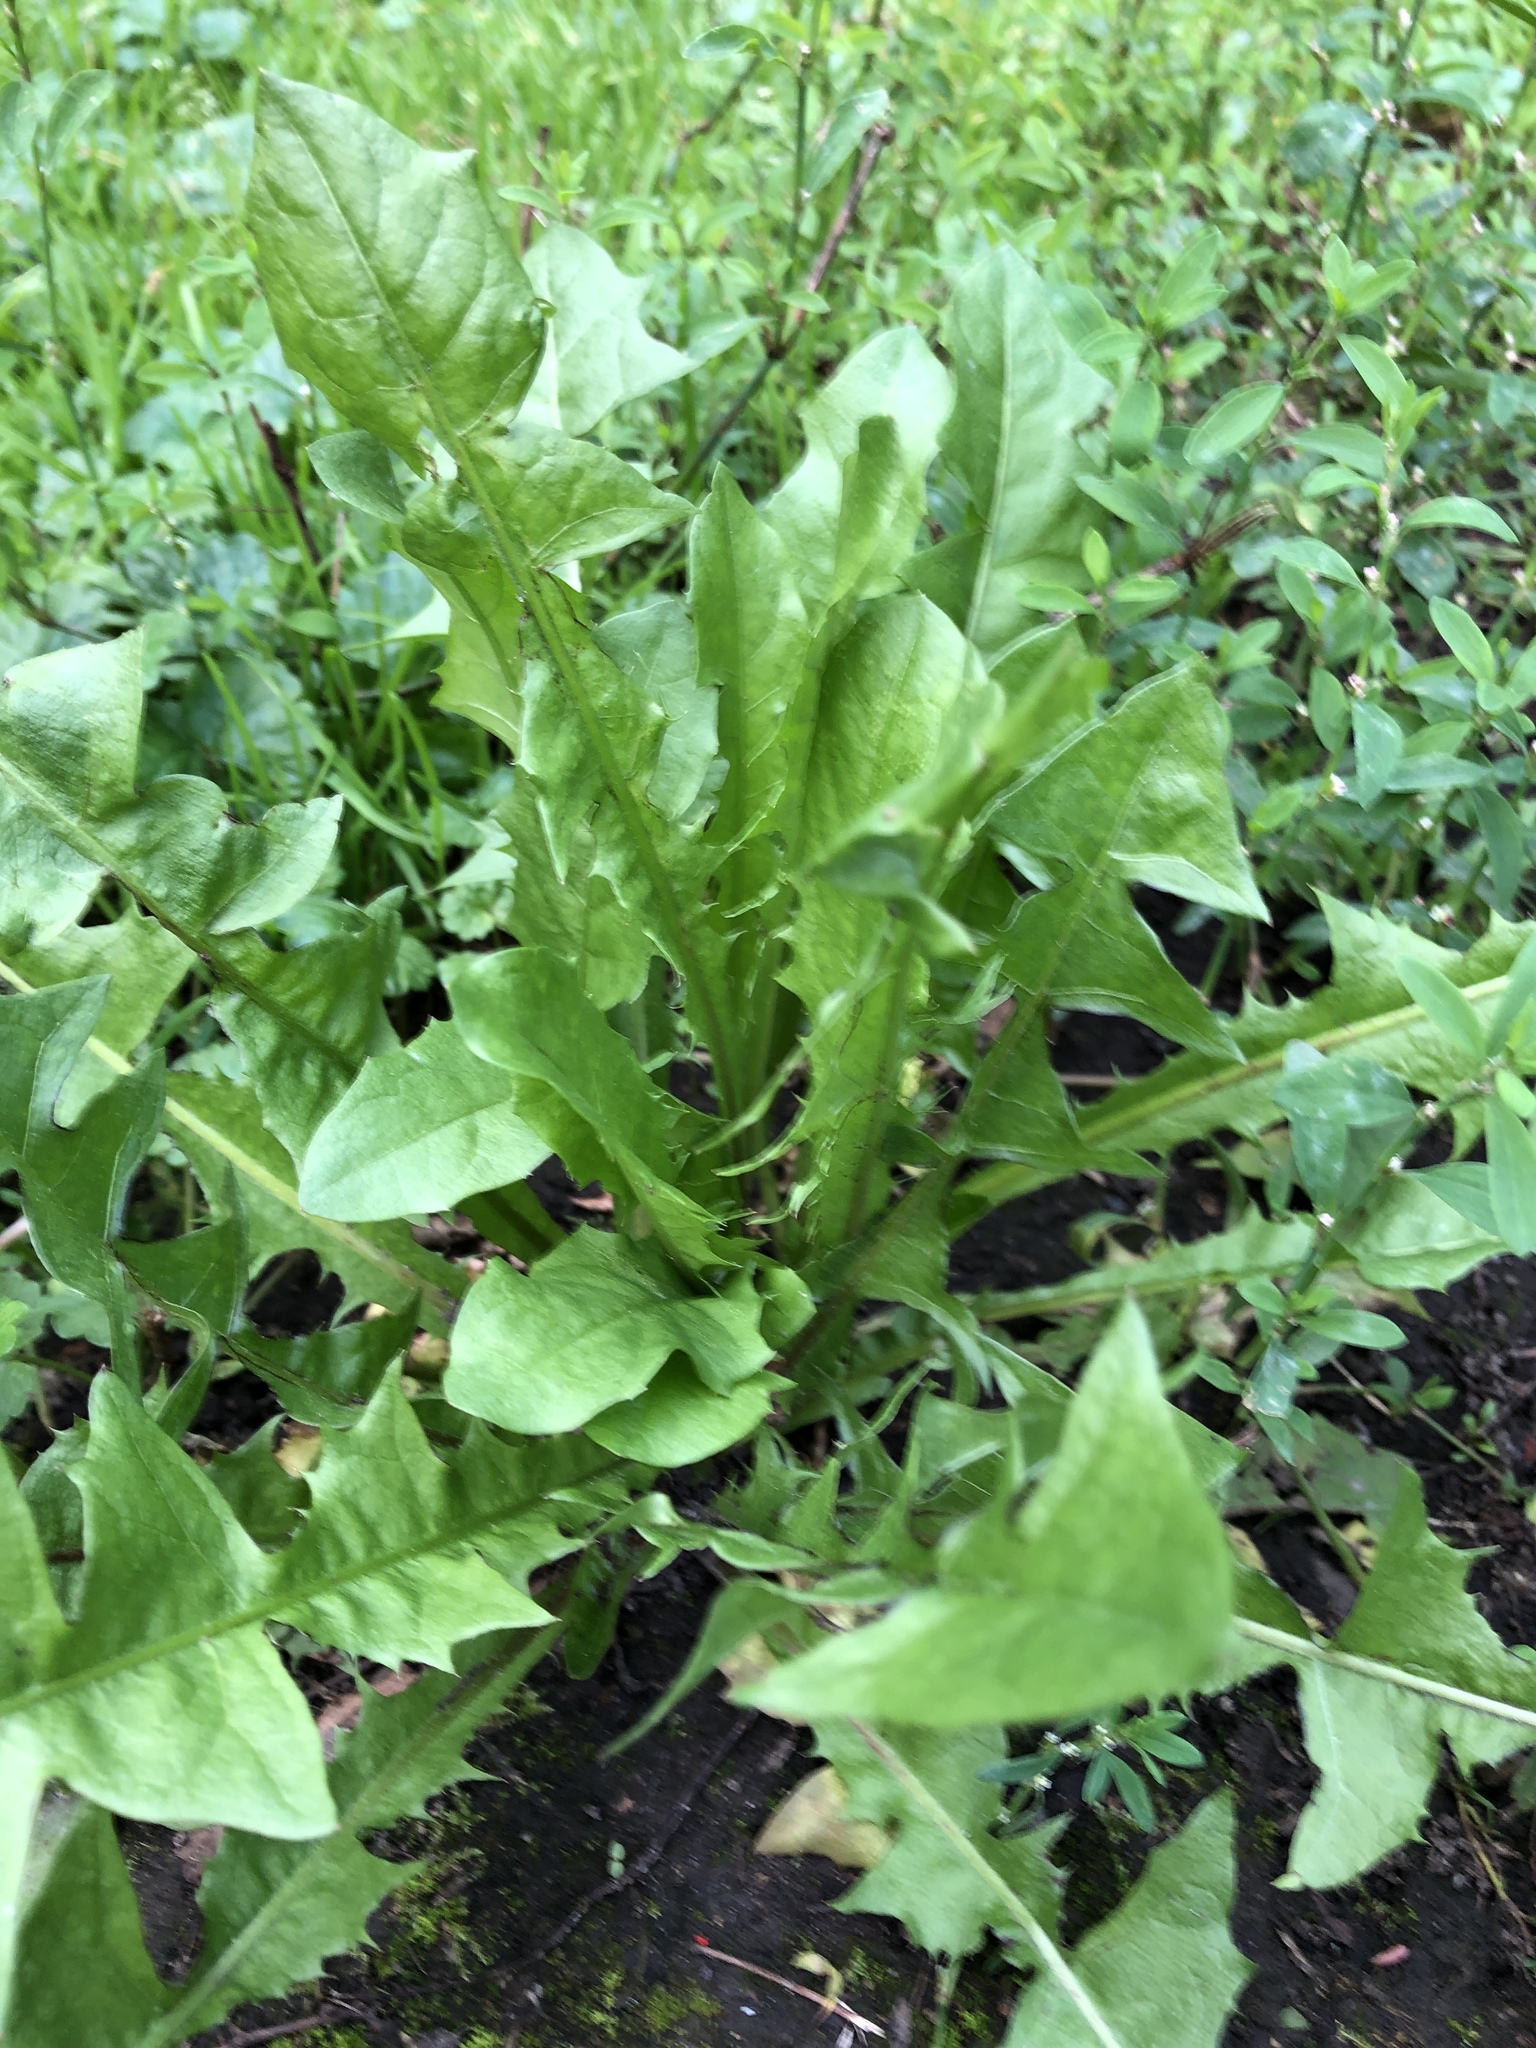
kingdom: Plantae
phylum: Tracheophyta
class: Magnoliopsida
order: Asterales
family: Asteraceae
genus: Taraxacum
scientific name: Taraxacum officinale
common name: Common dandelion
